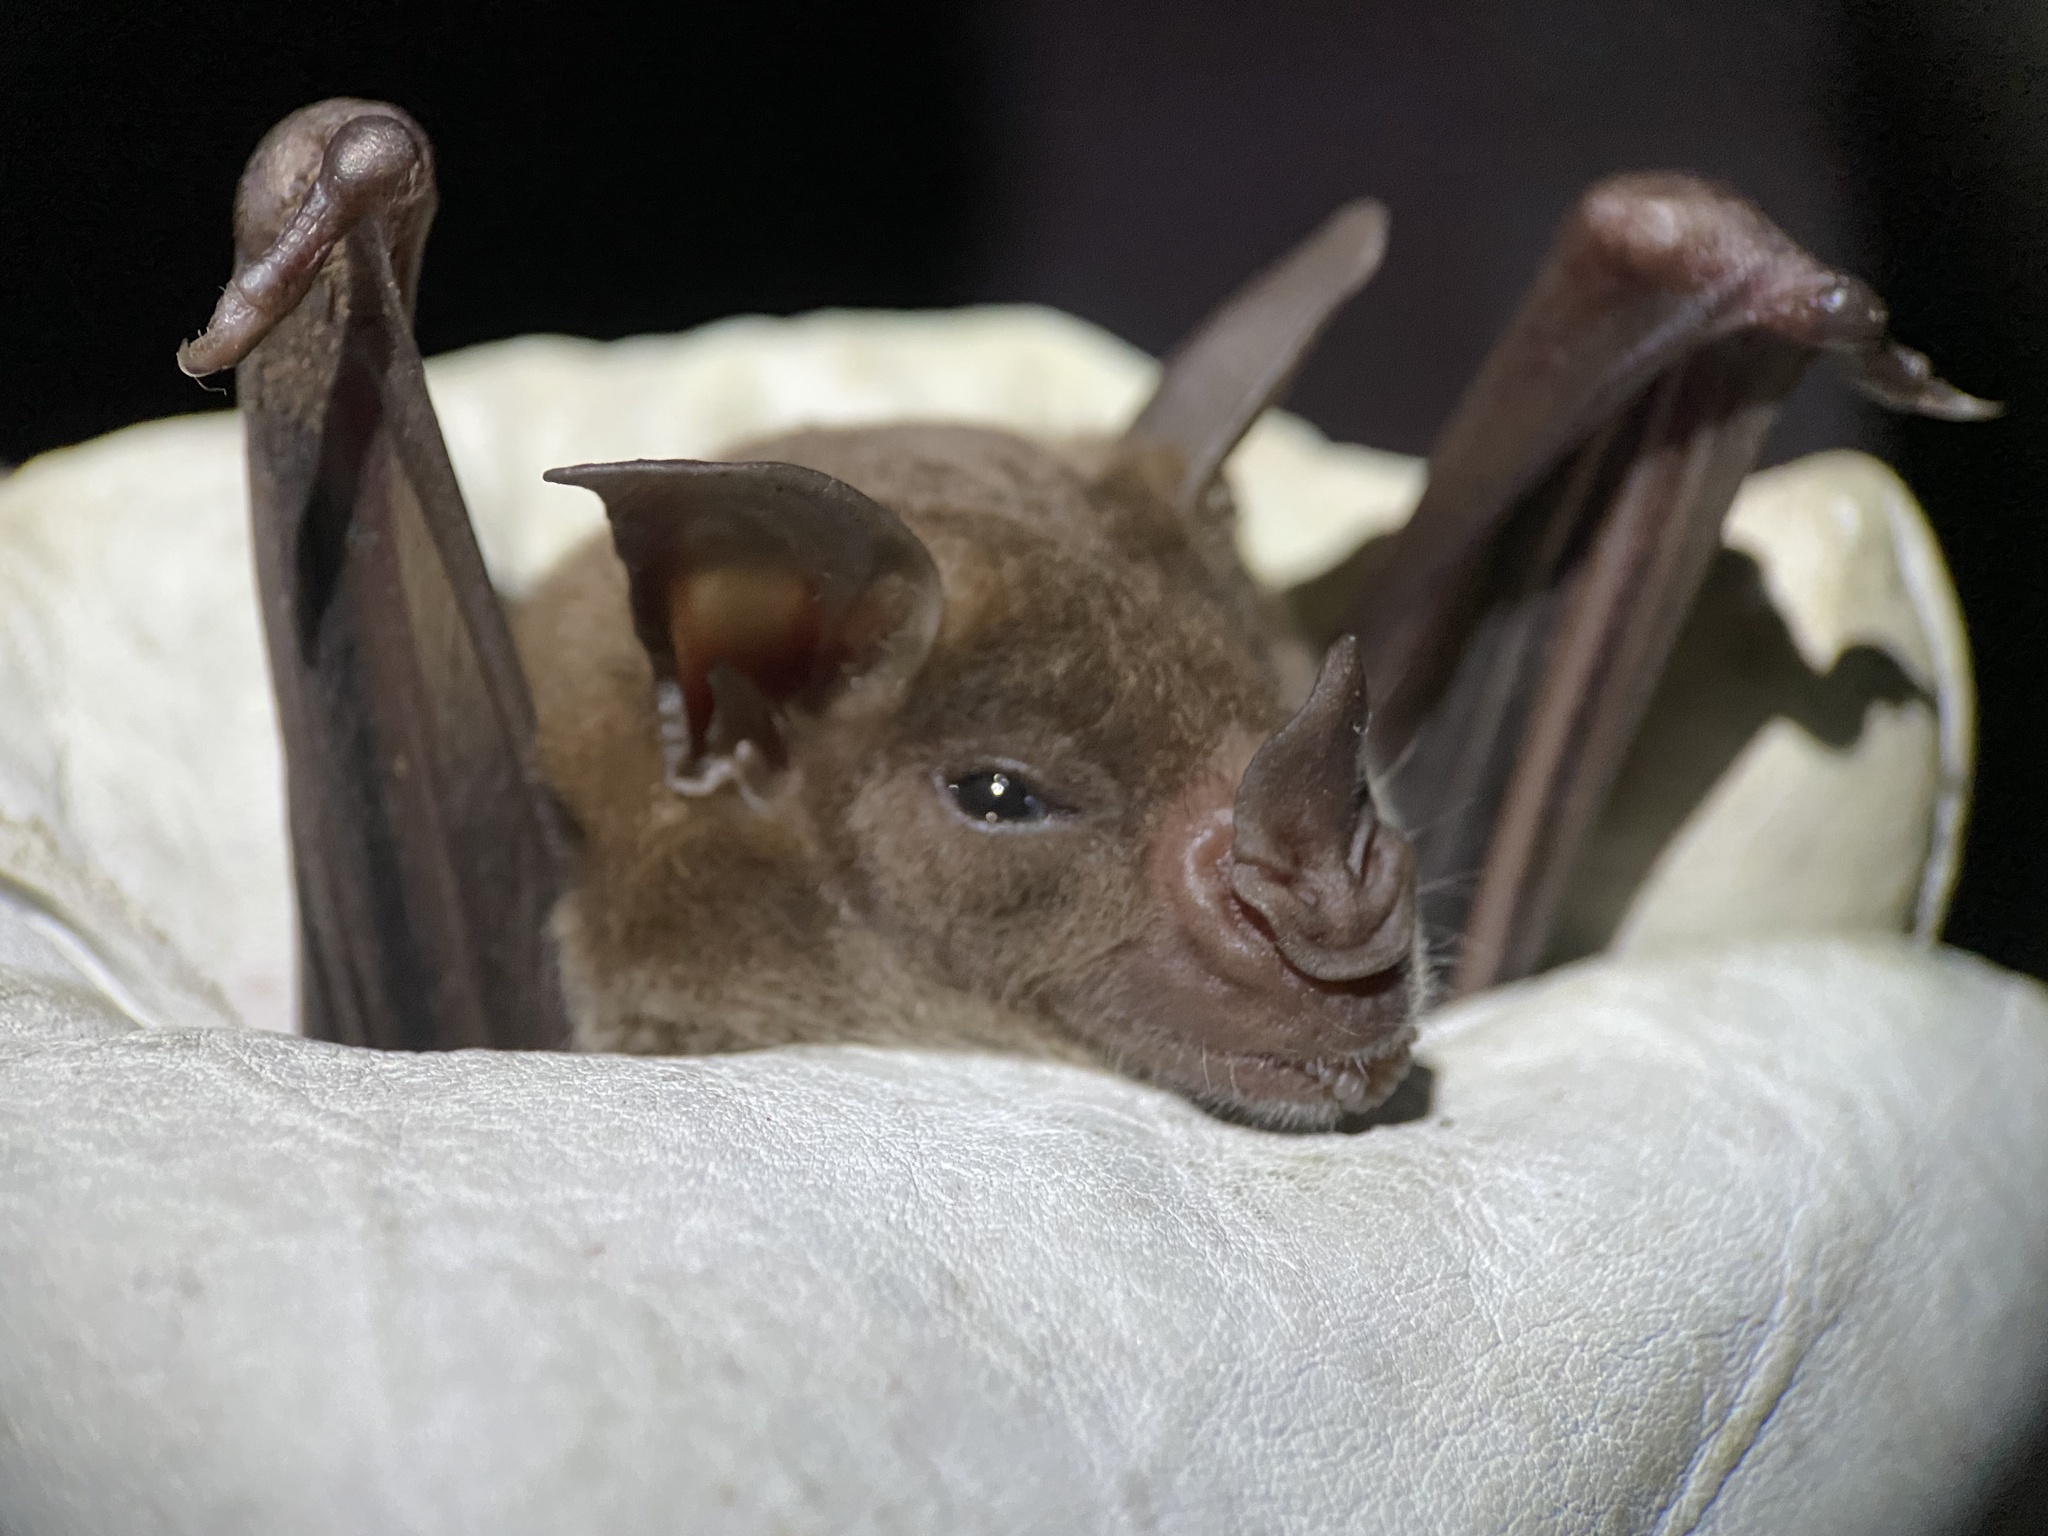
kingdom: Animalia
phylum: Chordata
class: Mammalia
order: Chiroptera
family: Phyllostomidae
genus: Phyllostomus
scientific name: Phyllostomus discolor
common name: Pale spear-nosed bat
